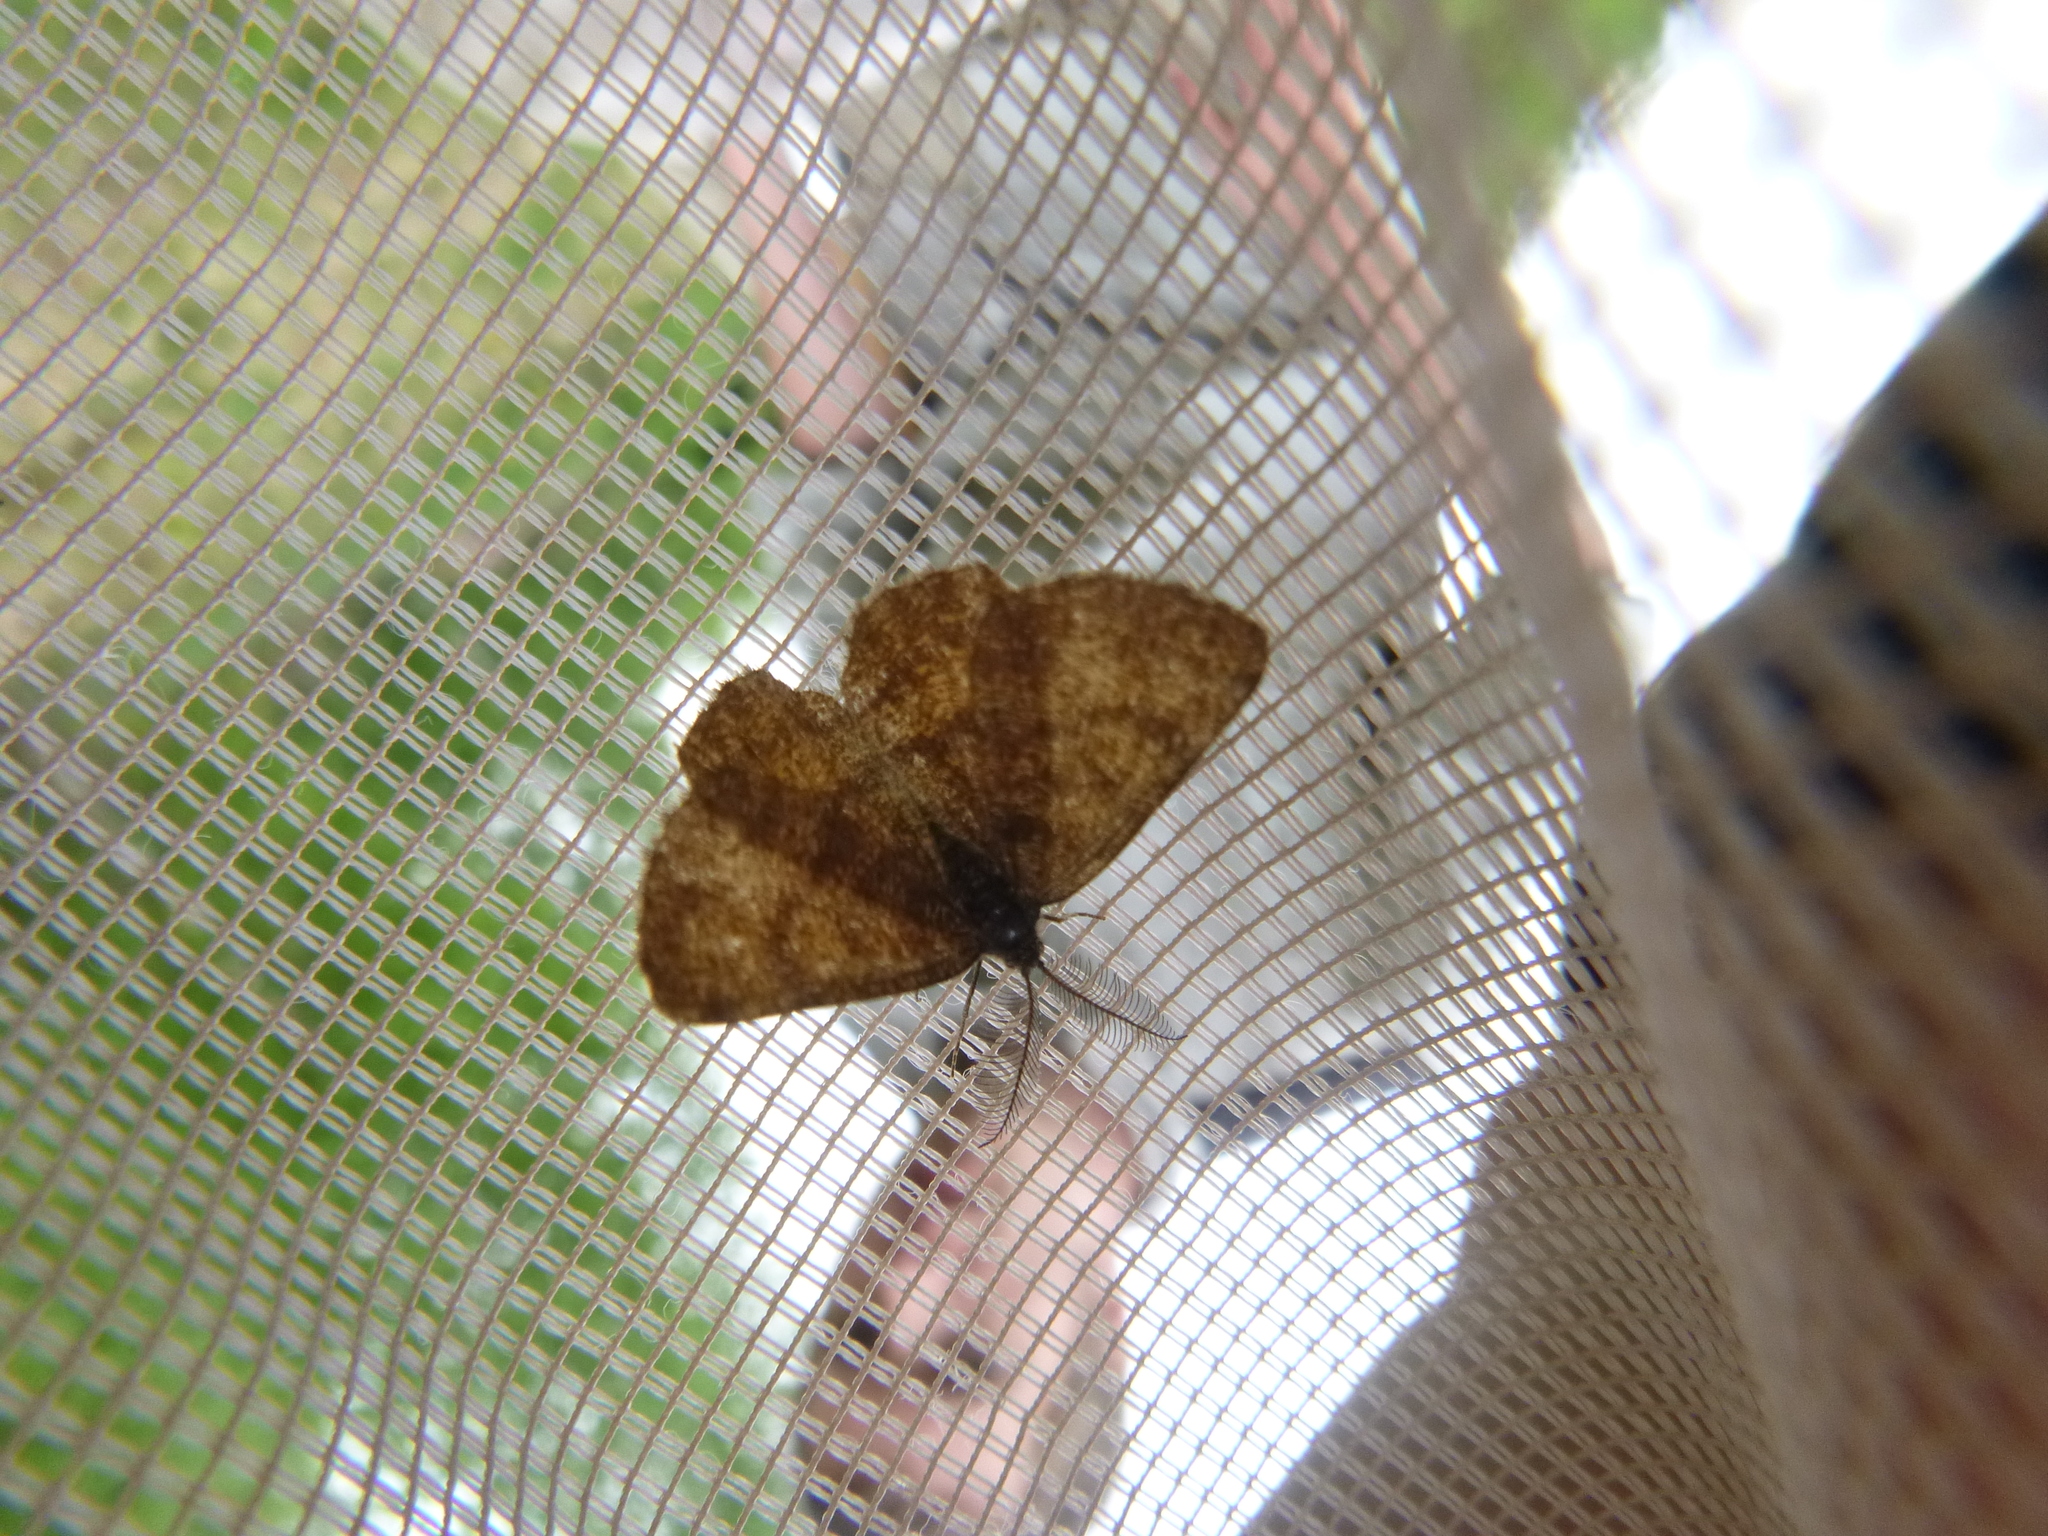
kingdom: Animalia
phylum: Arthropoda
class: Insecta
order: Lepidoptera
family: Geometridae
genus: Ematurga
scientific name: Ematurga atomaria
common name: Common heath
